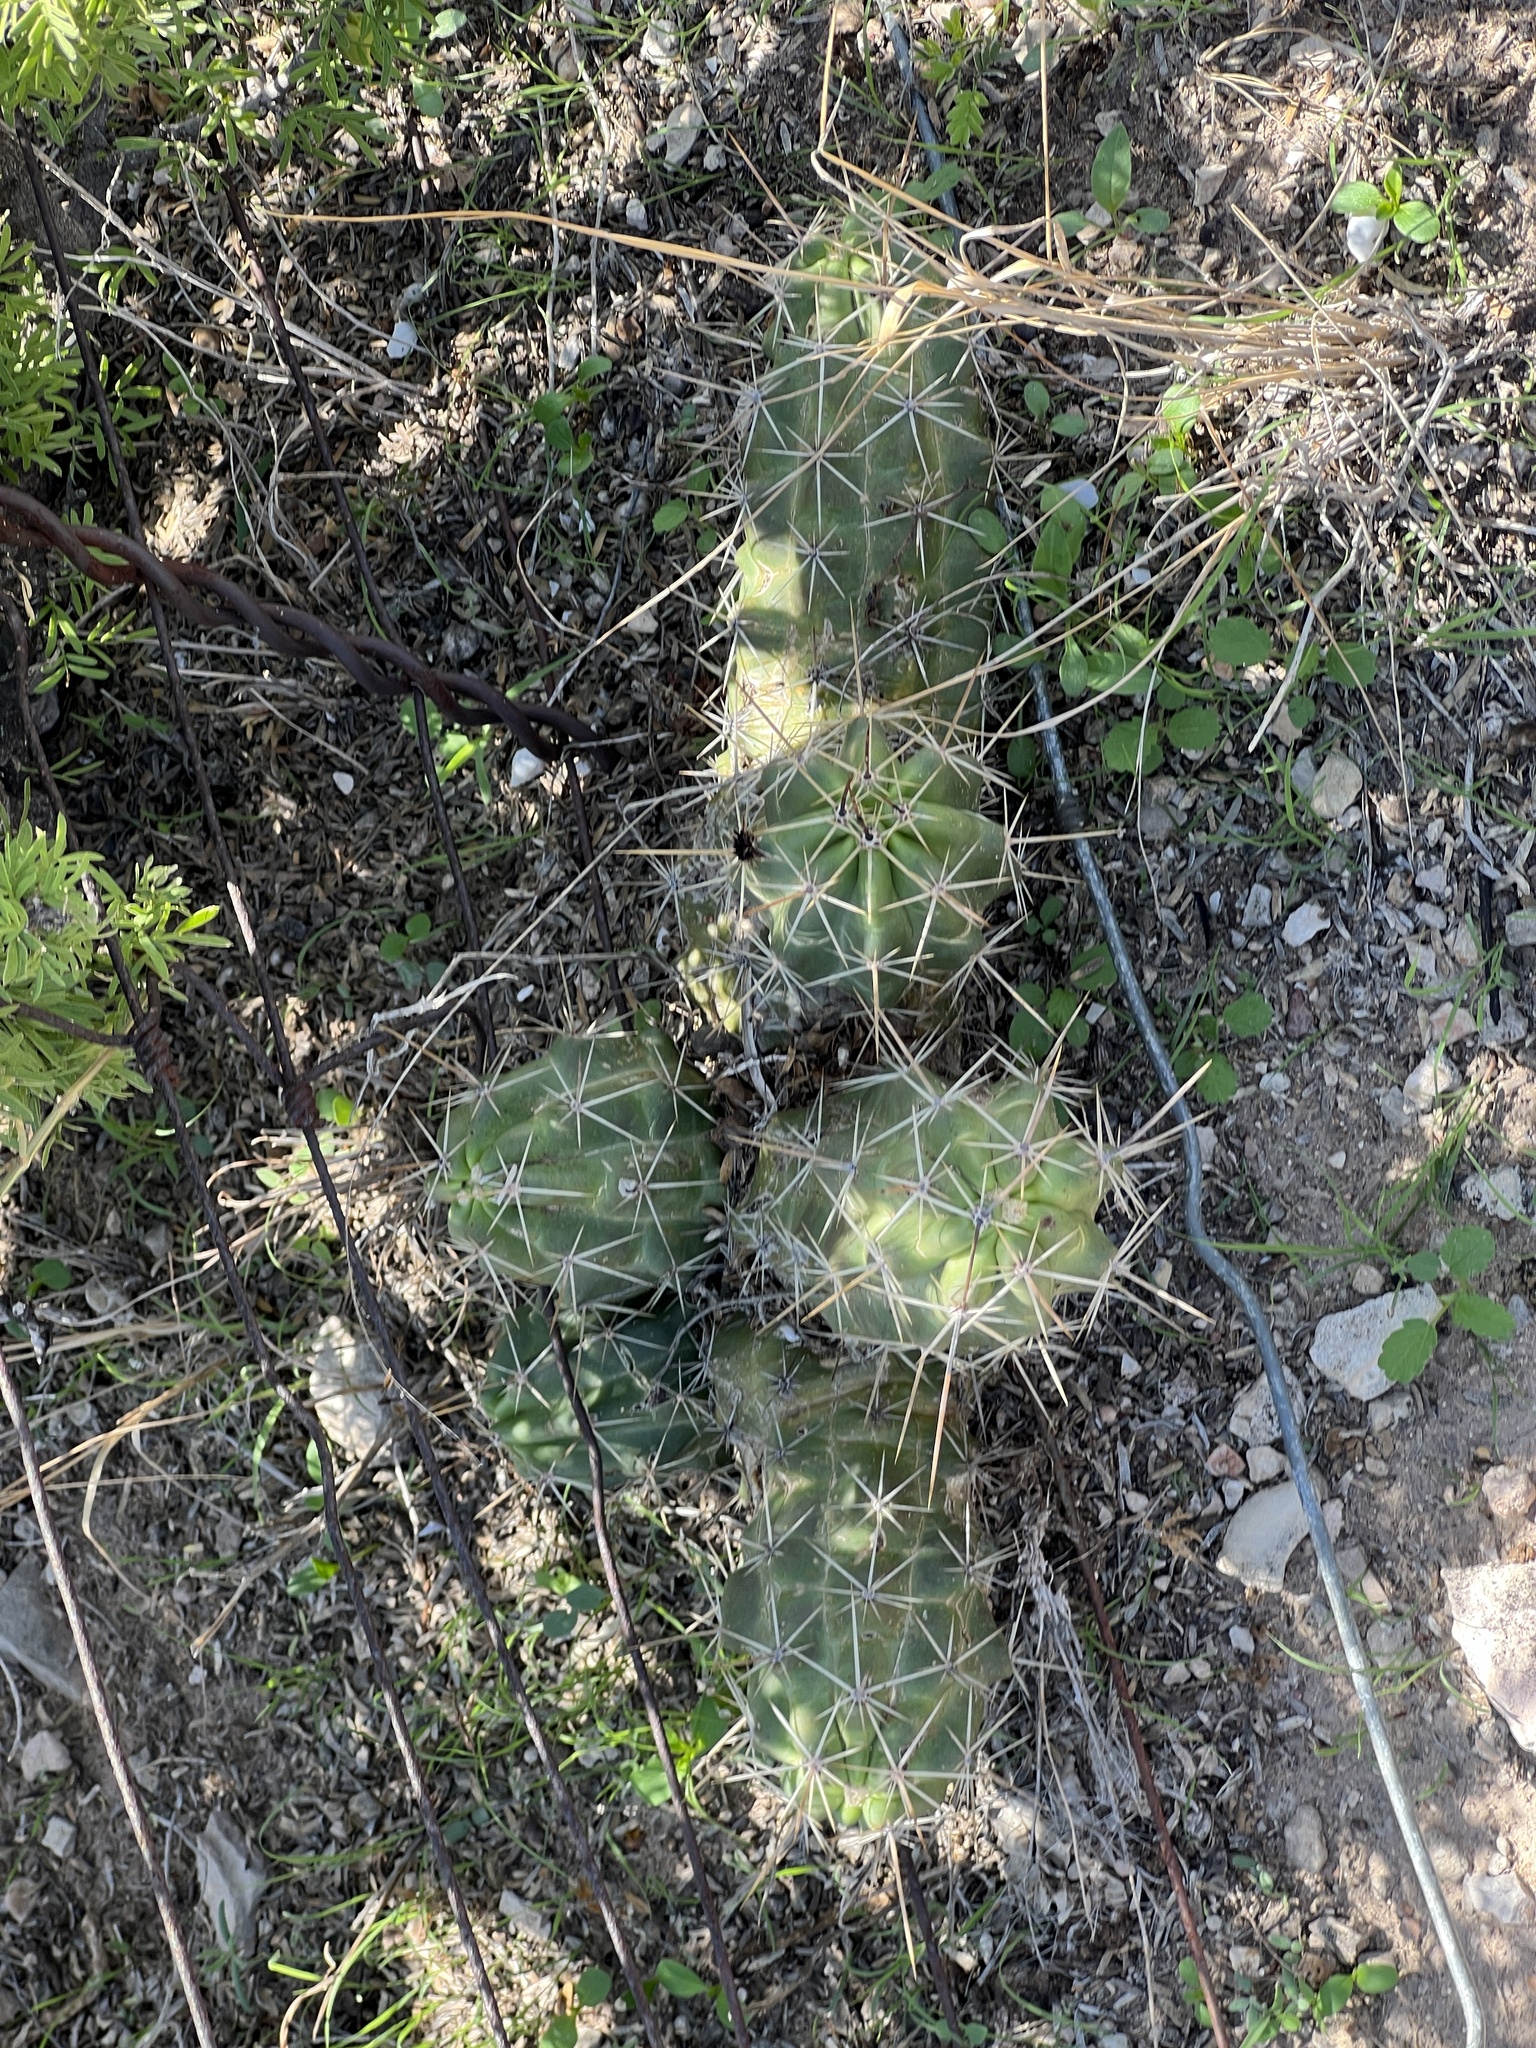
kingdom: Plantae
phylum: Tracheophyta
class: Magnoliopsida
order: Caryophyllales
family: Cactaceae
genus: Echinocereus
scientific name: Echinocereus enneacanthus
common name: Pitaya
